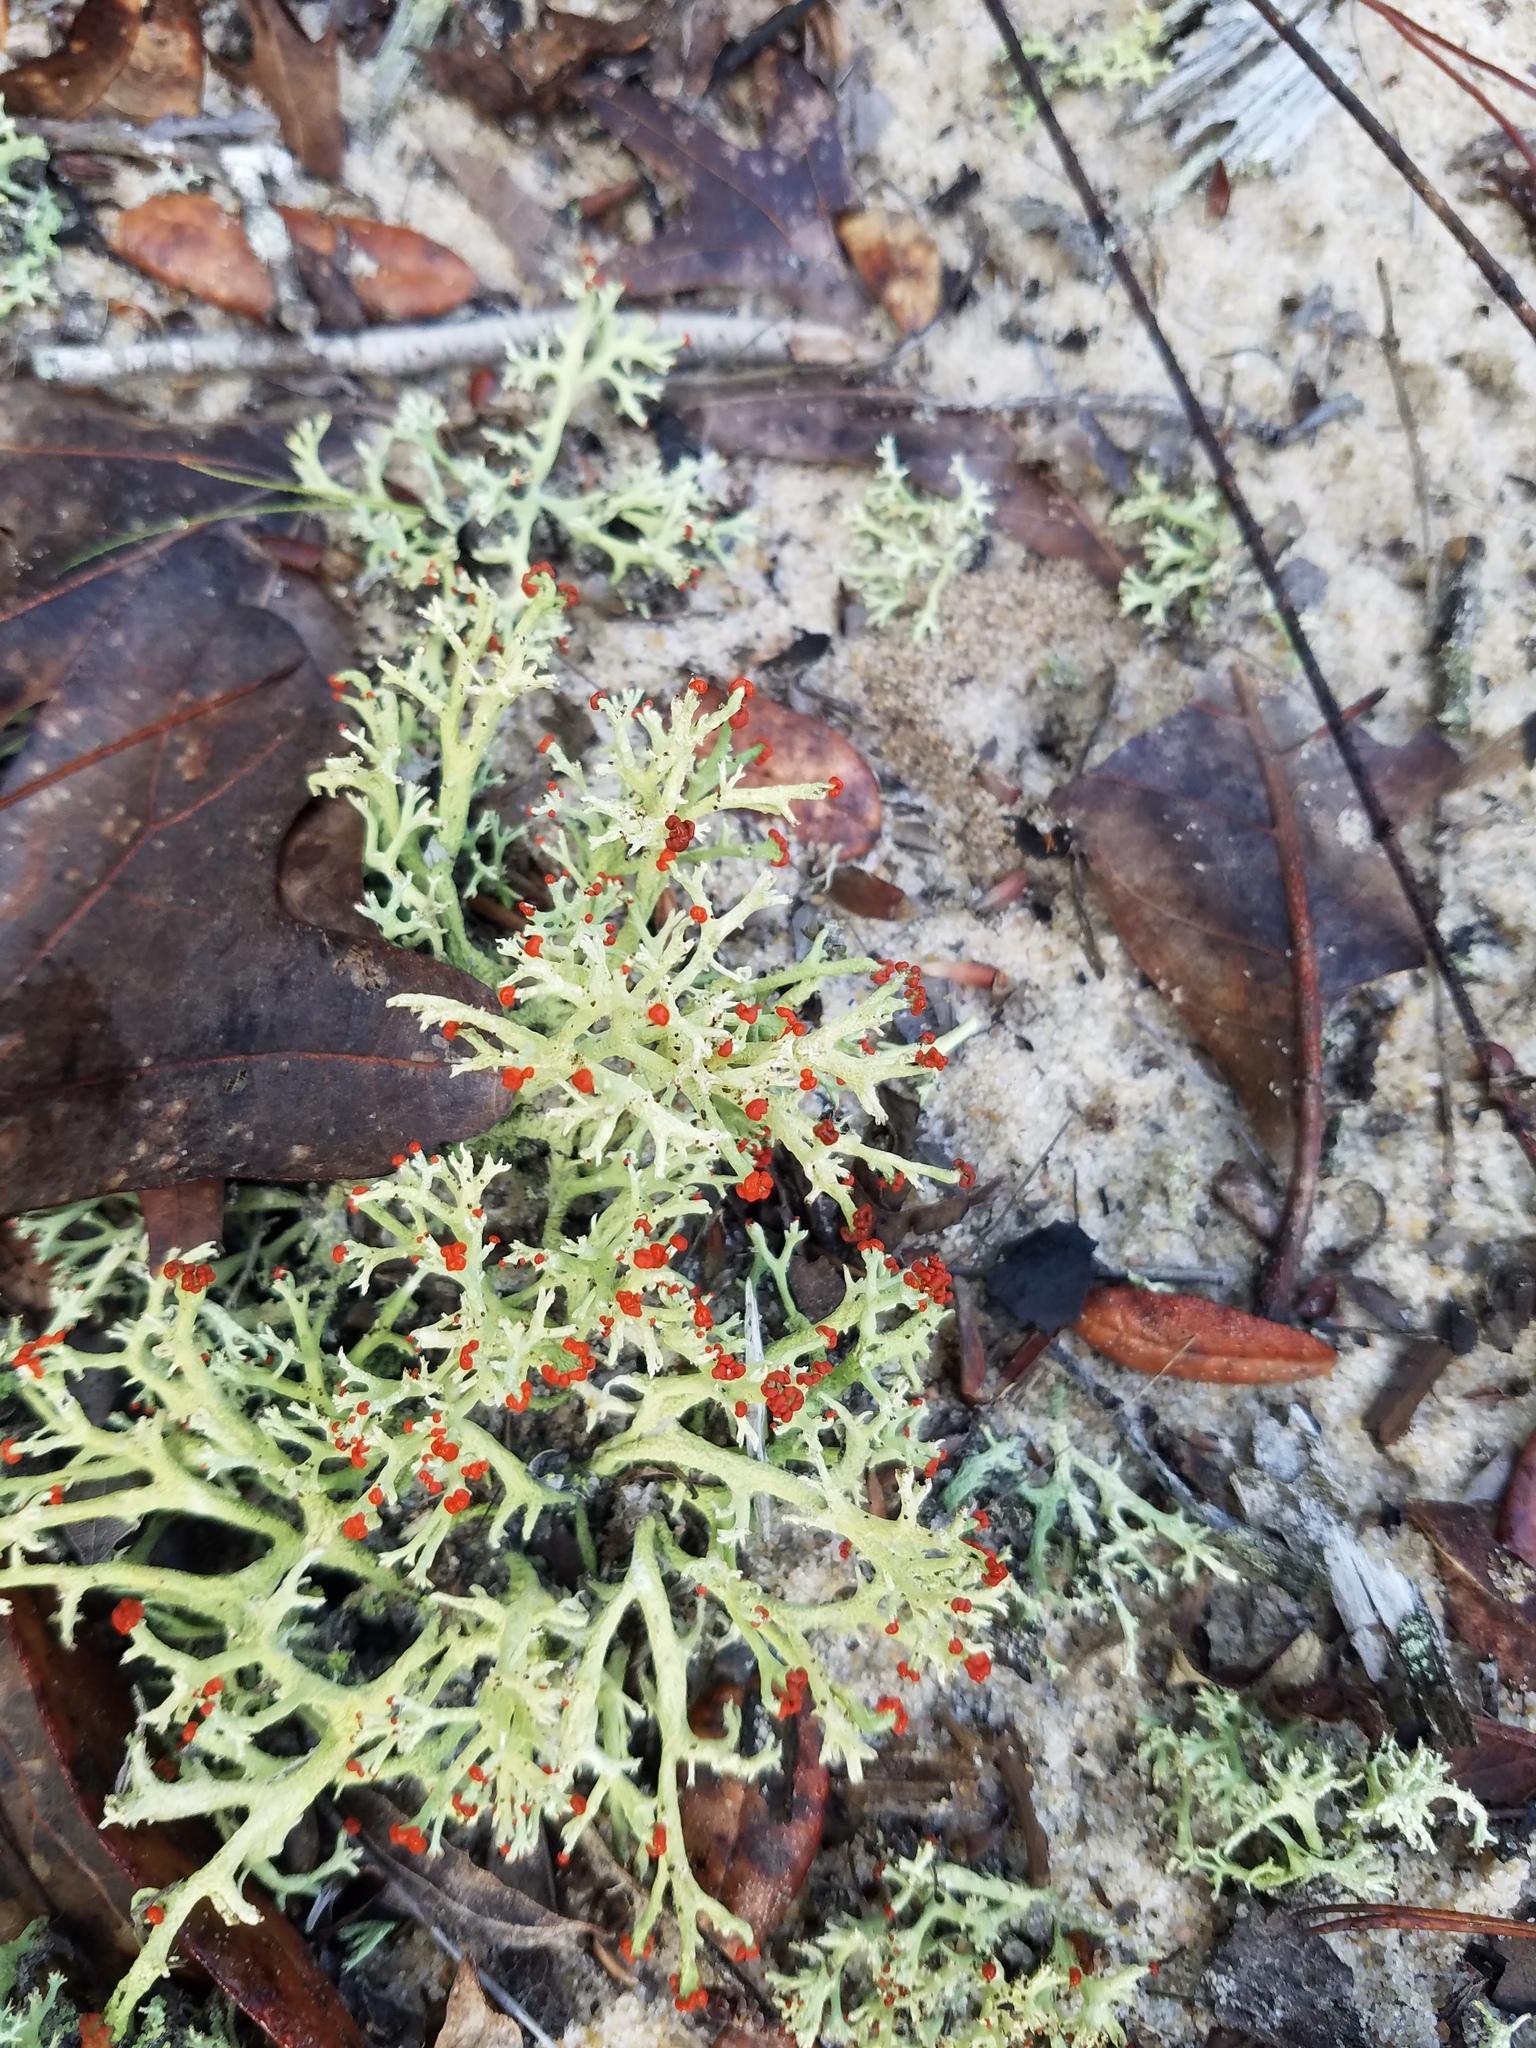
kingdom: Fungi
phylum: Ascomycota
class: Lecanoromycetes
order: Lecanorales
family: Cladoniaceae
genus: Cladonia
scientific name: Cladonia leporina
